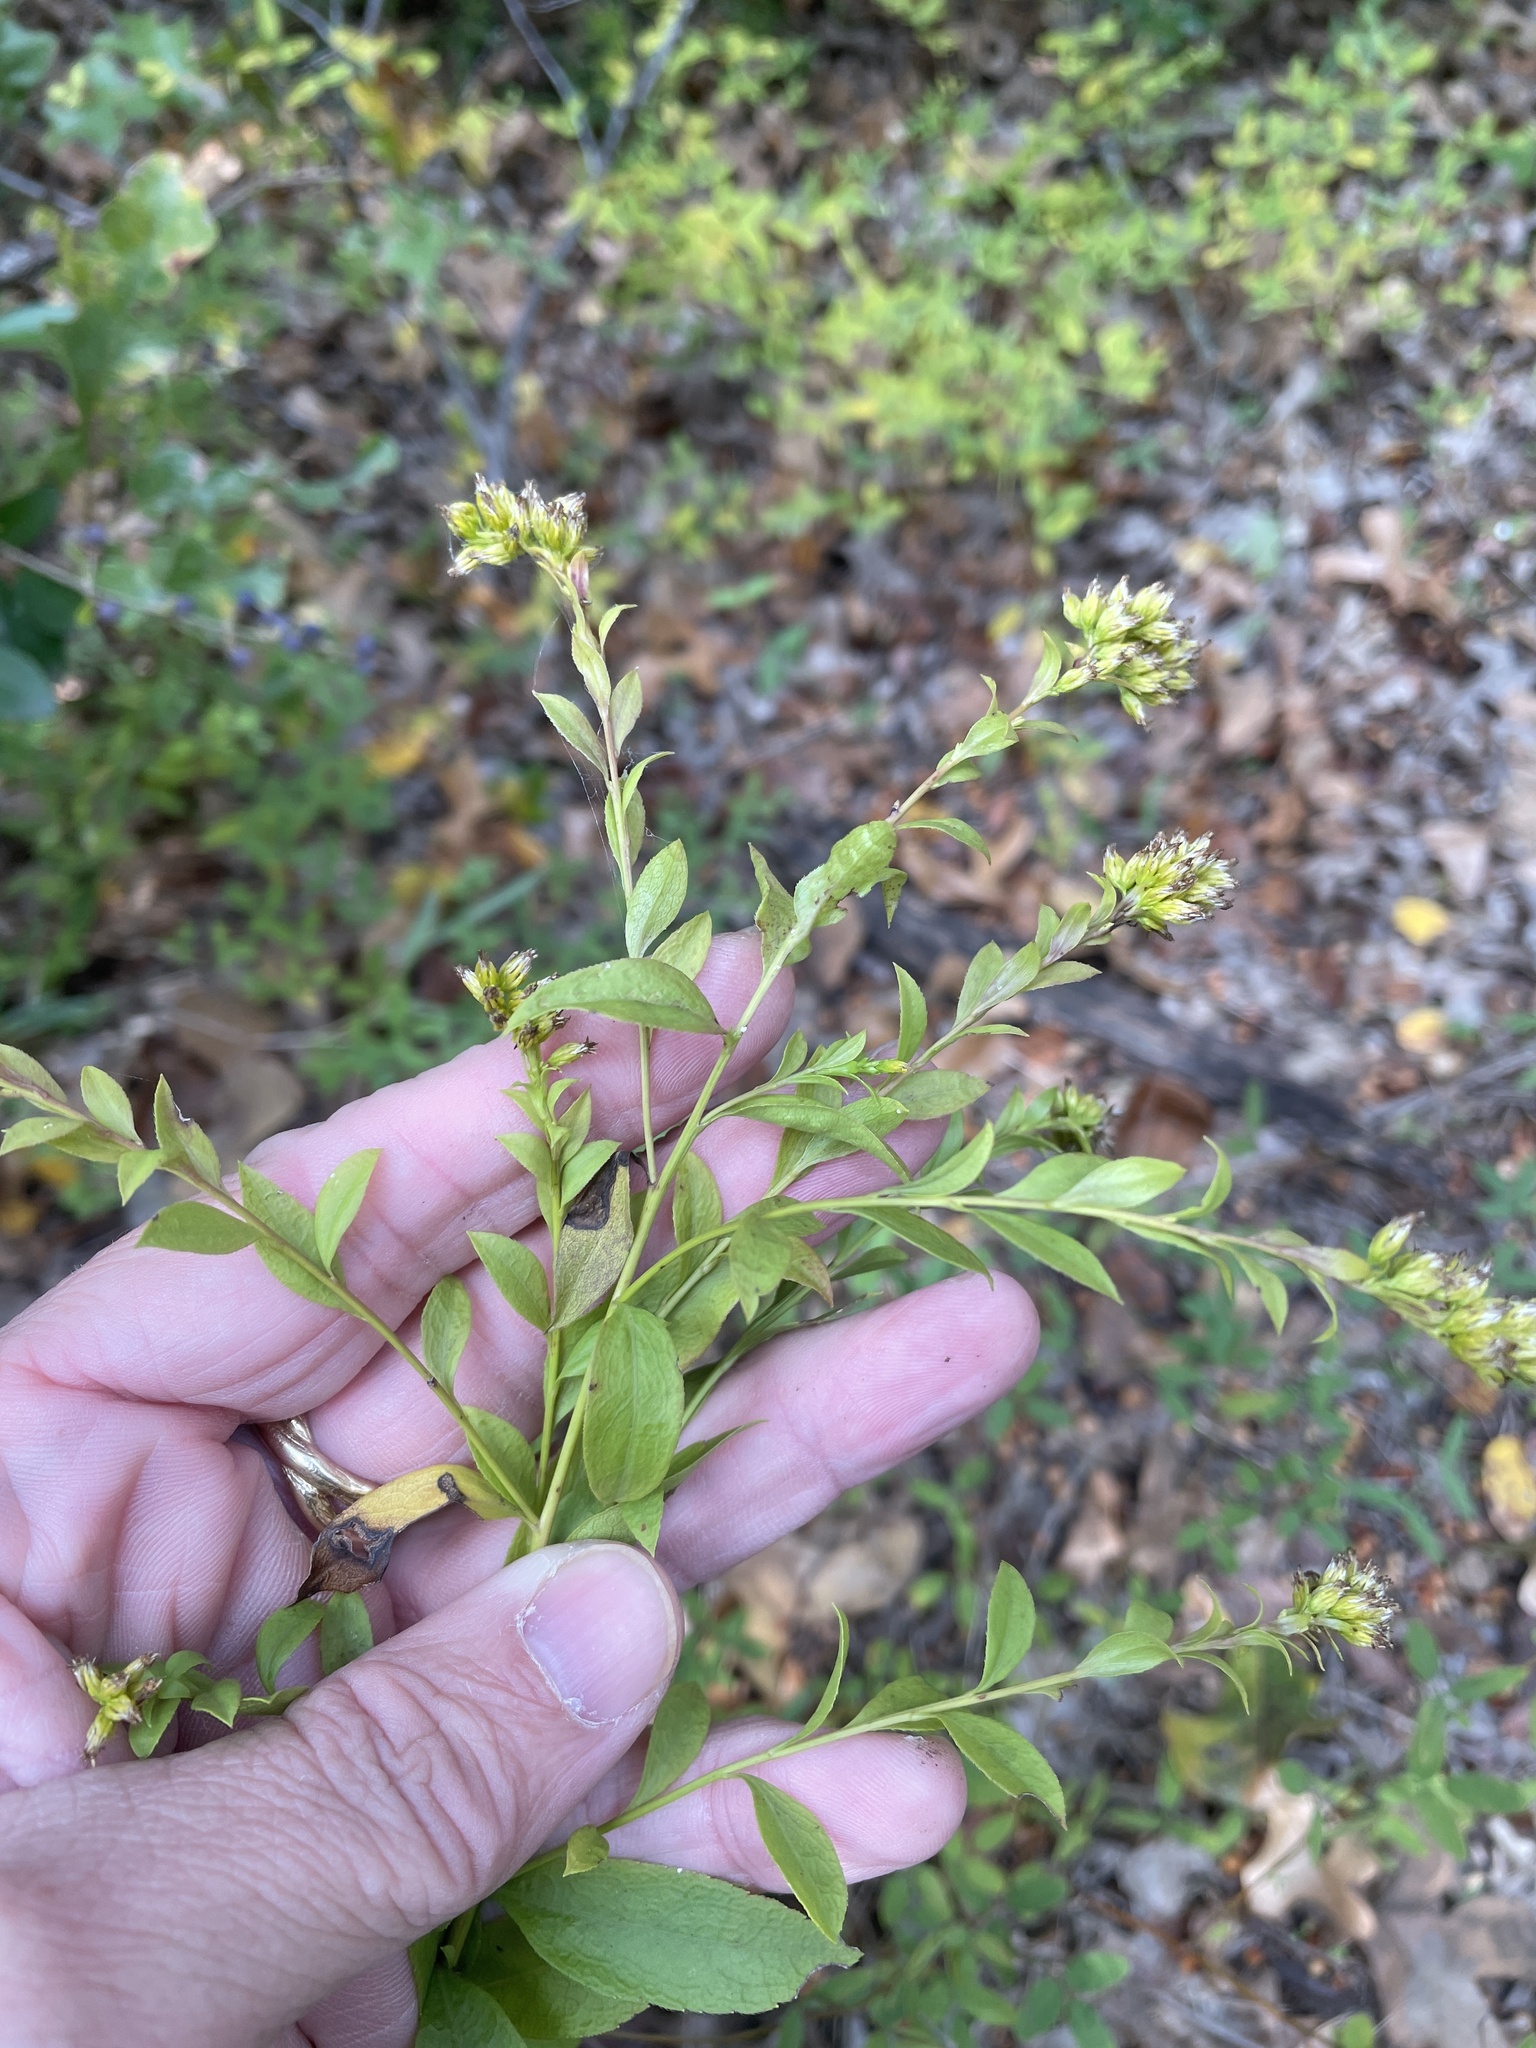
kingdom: Plantae
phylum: Tracheophyta
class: Magnoliopsida
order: Asterales
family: Asteraceae
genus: Solidago
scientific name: Solidago delicatula
